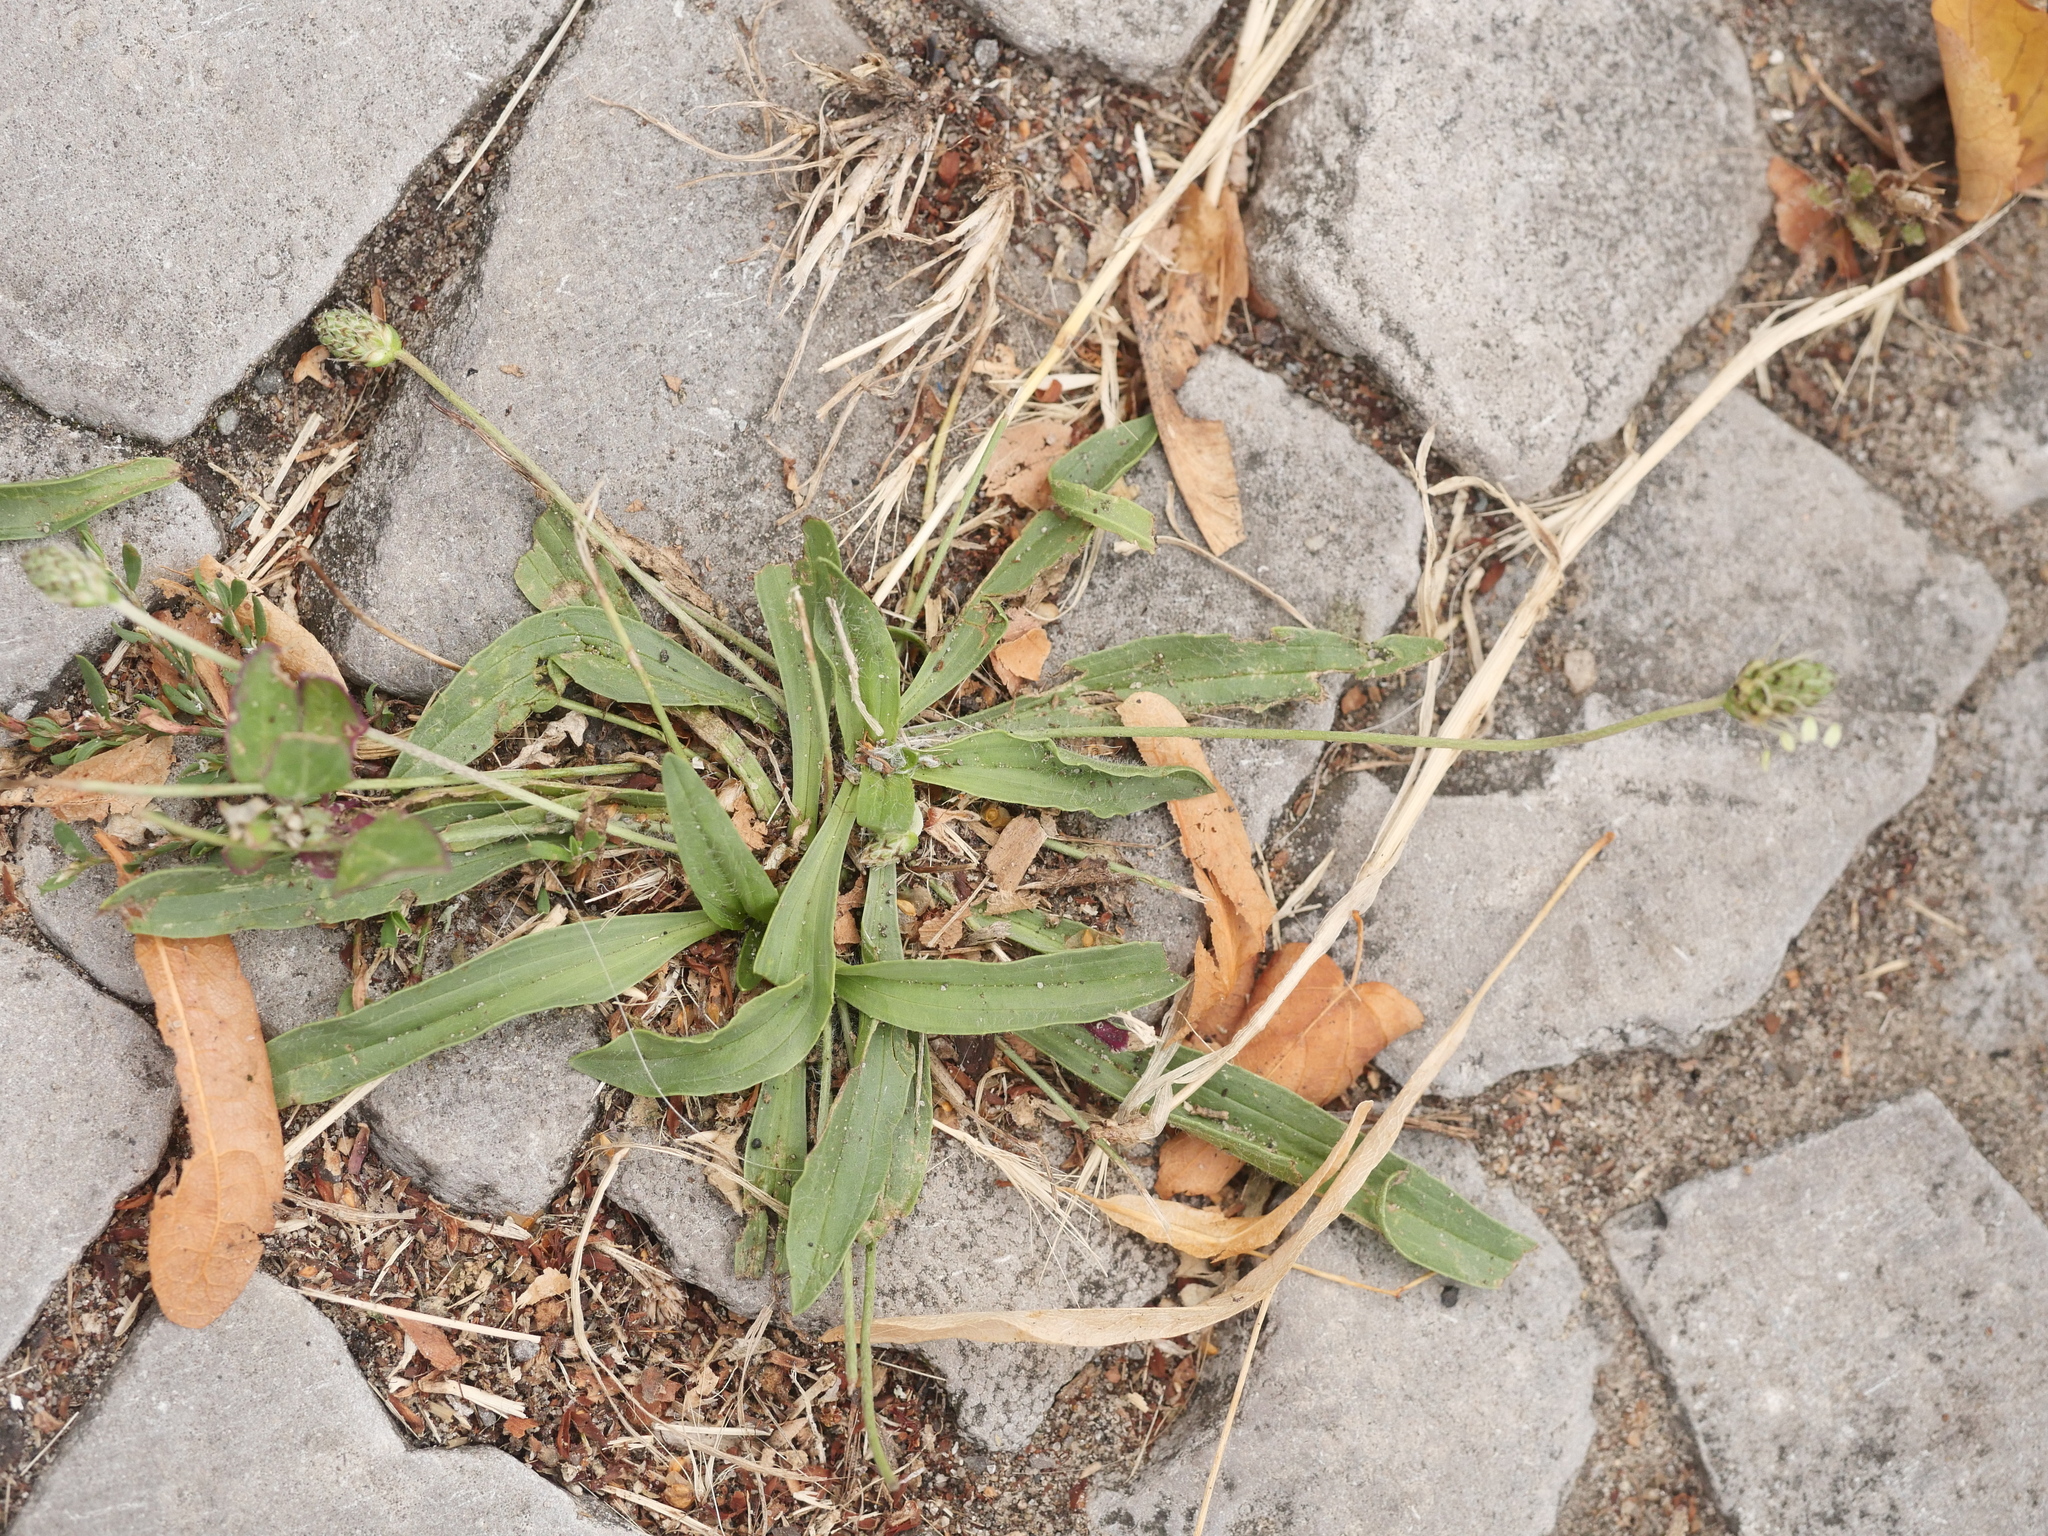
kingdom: Plantae
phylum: Tracheophyta
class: Magnoliopsida
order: Lamiales
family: Plantaginaceae
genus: Plantago
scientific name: Plantago lanceolata
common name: Ribwort plantain
